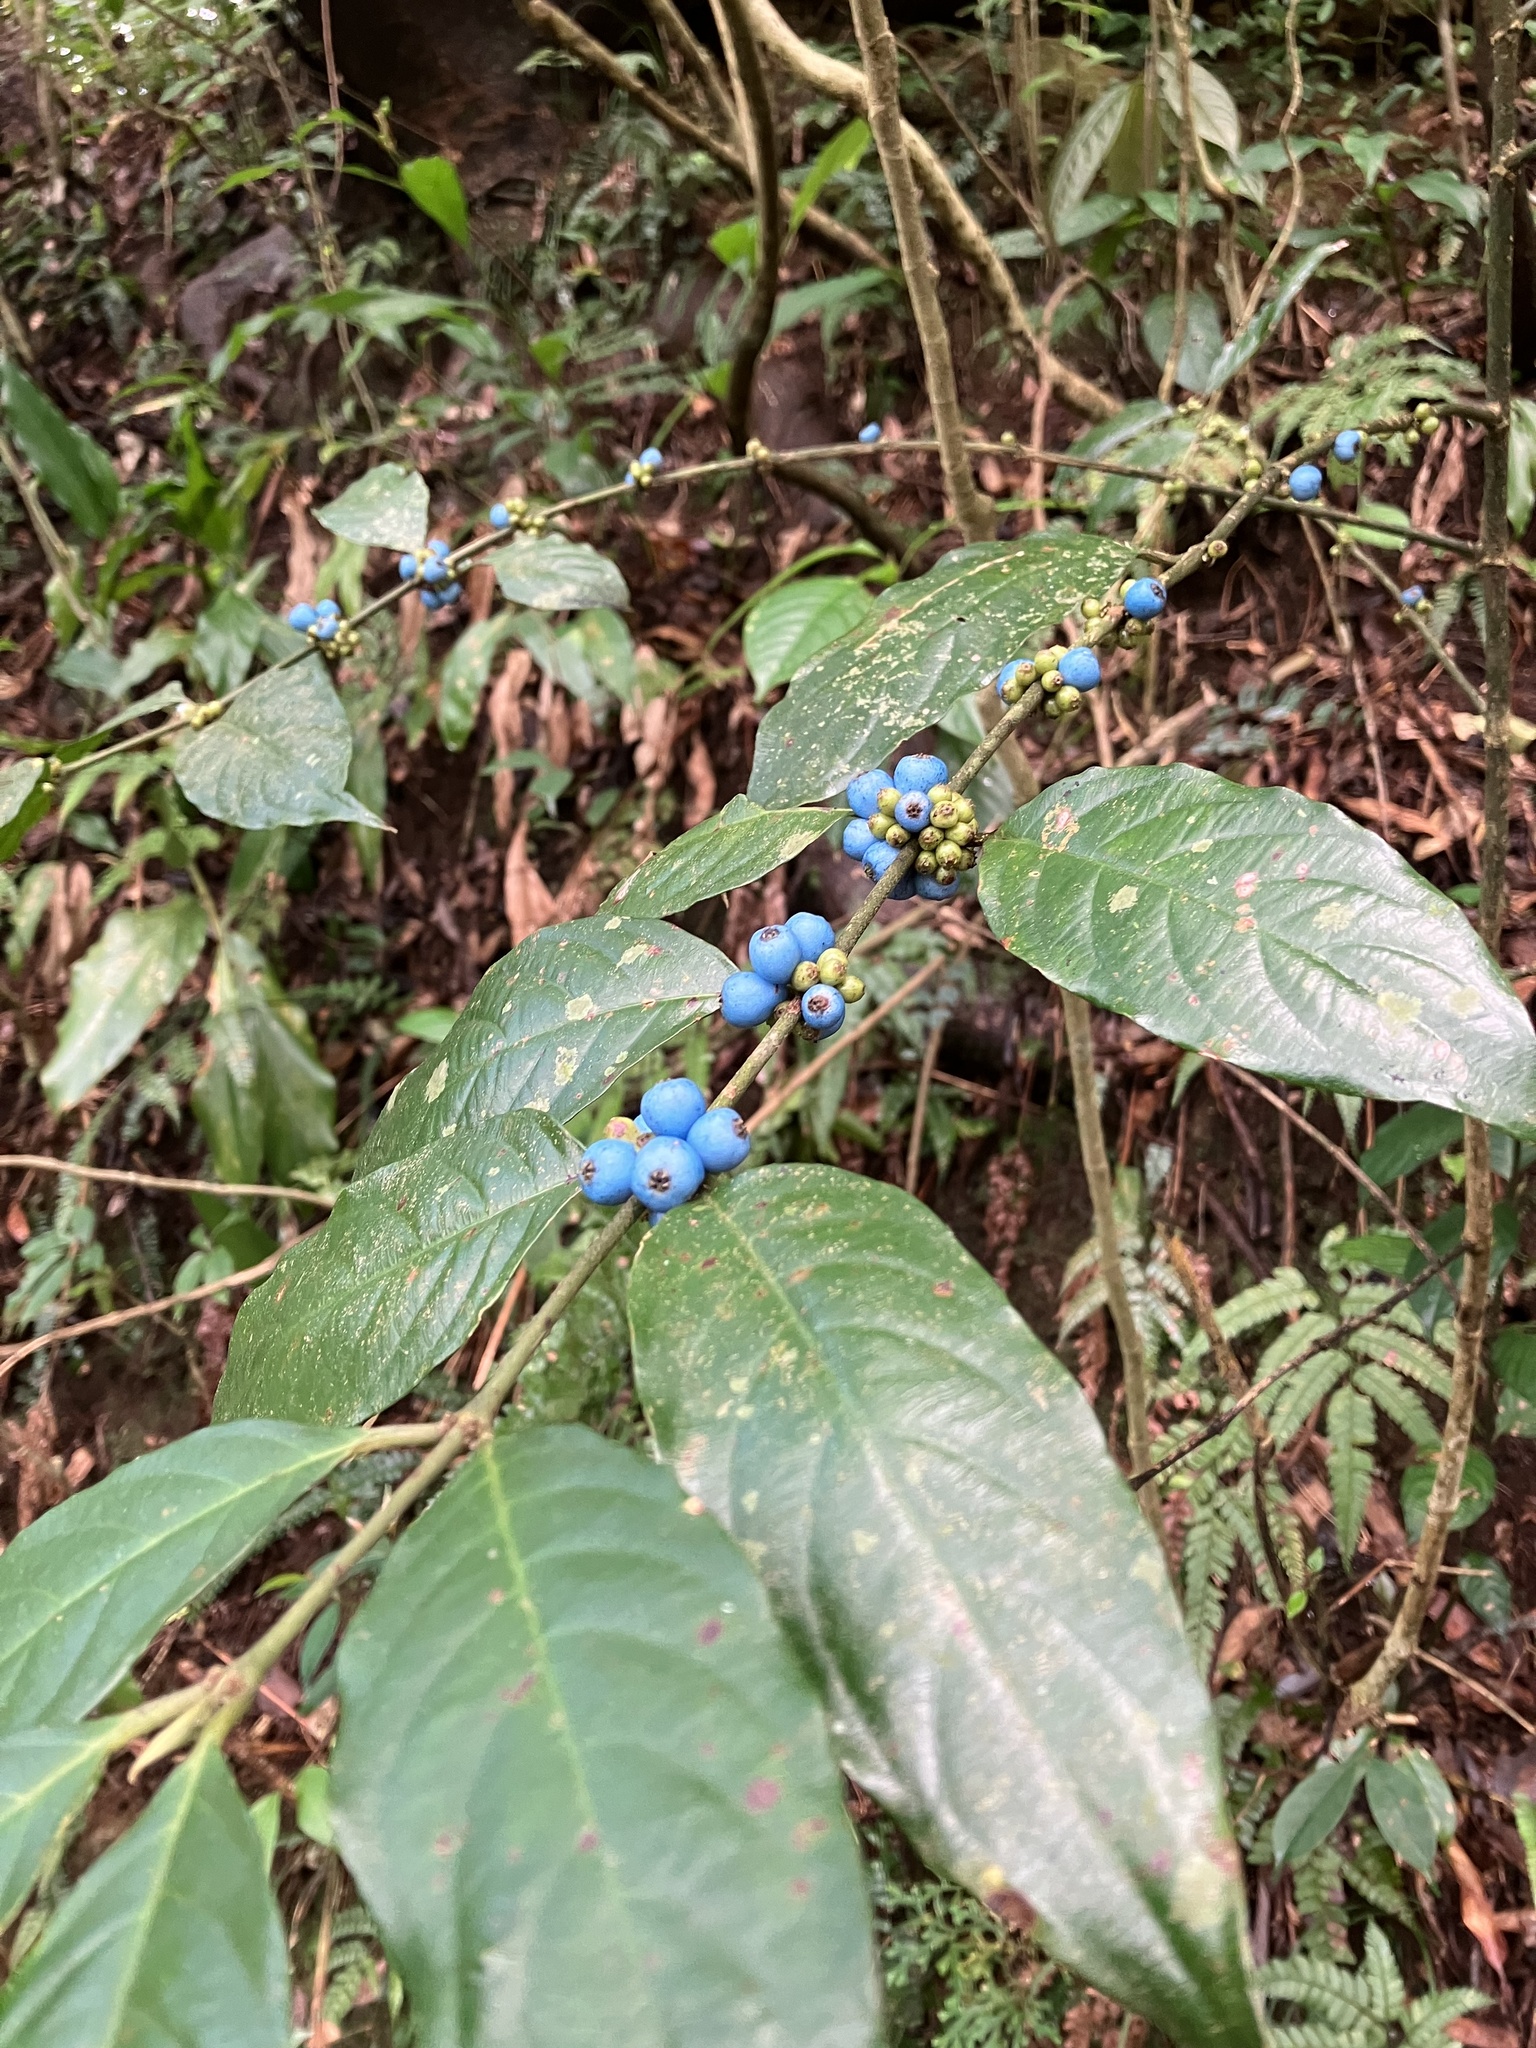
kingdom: Plantae
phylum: Tracheophyta
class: Magnoliopsida
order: Gentianales
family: Rubiaceae
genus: Lasianthus
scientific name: Lasianthus fordii
